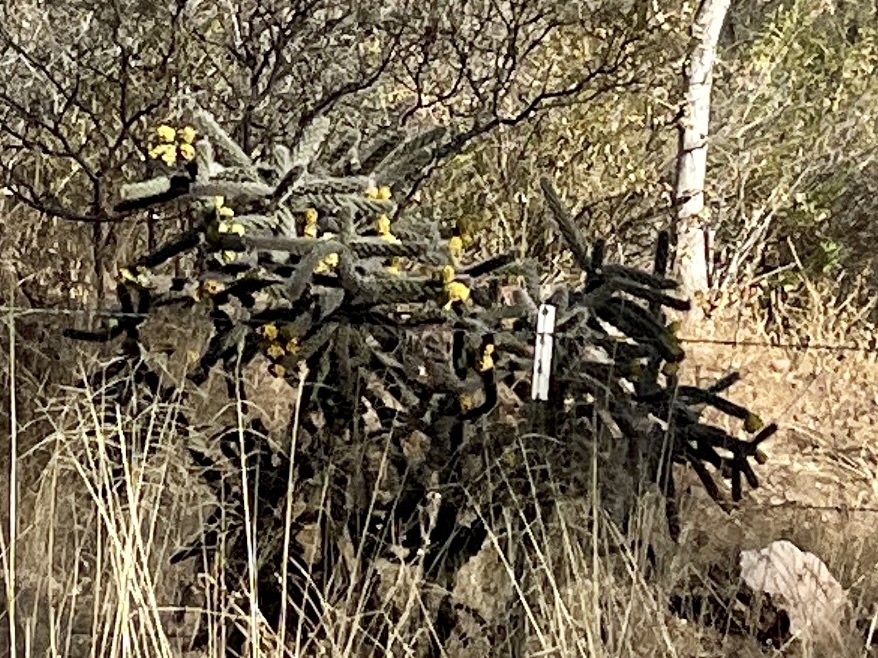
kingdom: Plantae
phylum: Tracheophyta
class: Magnoliopsida
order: Caryophyllales
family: Cactaceae
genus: Cylindropuntia
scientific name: Cylindropuntia imbricata
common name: Candelabrum cactus
